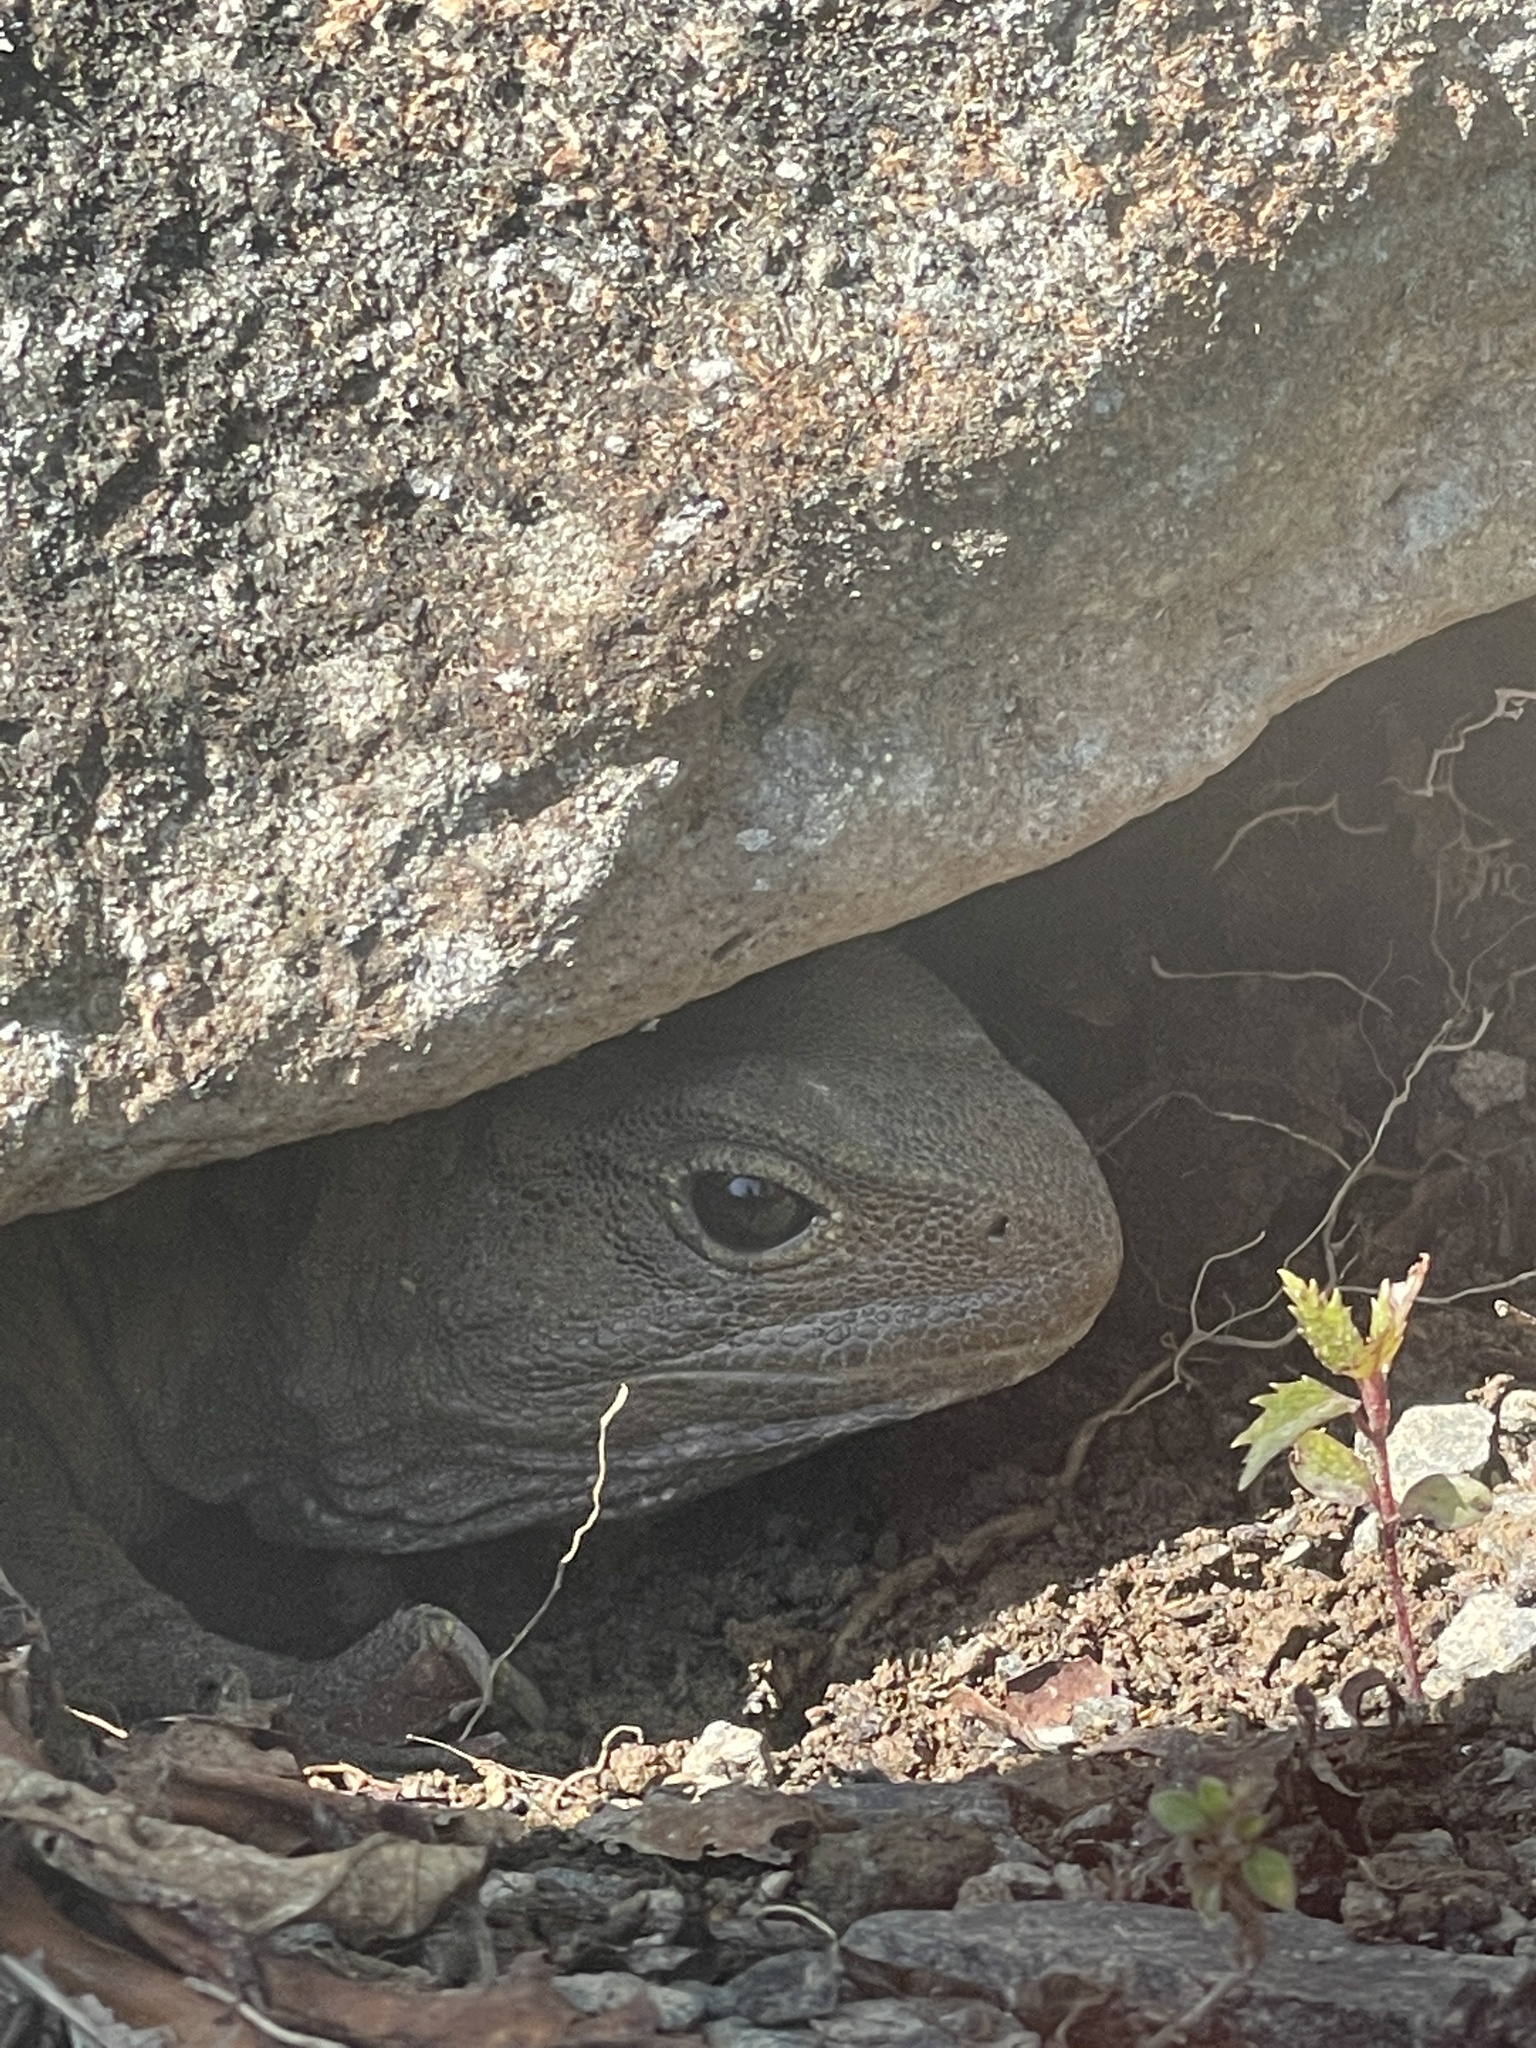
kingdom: Animalia
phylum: Chordata
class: Sphenodontia
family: Sphenodontidae
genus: Sphenodon
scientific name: Sphenodon punctatus
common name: Tuatara
